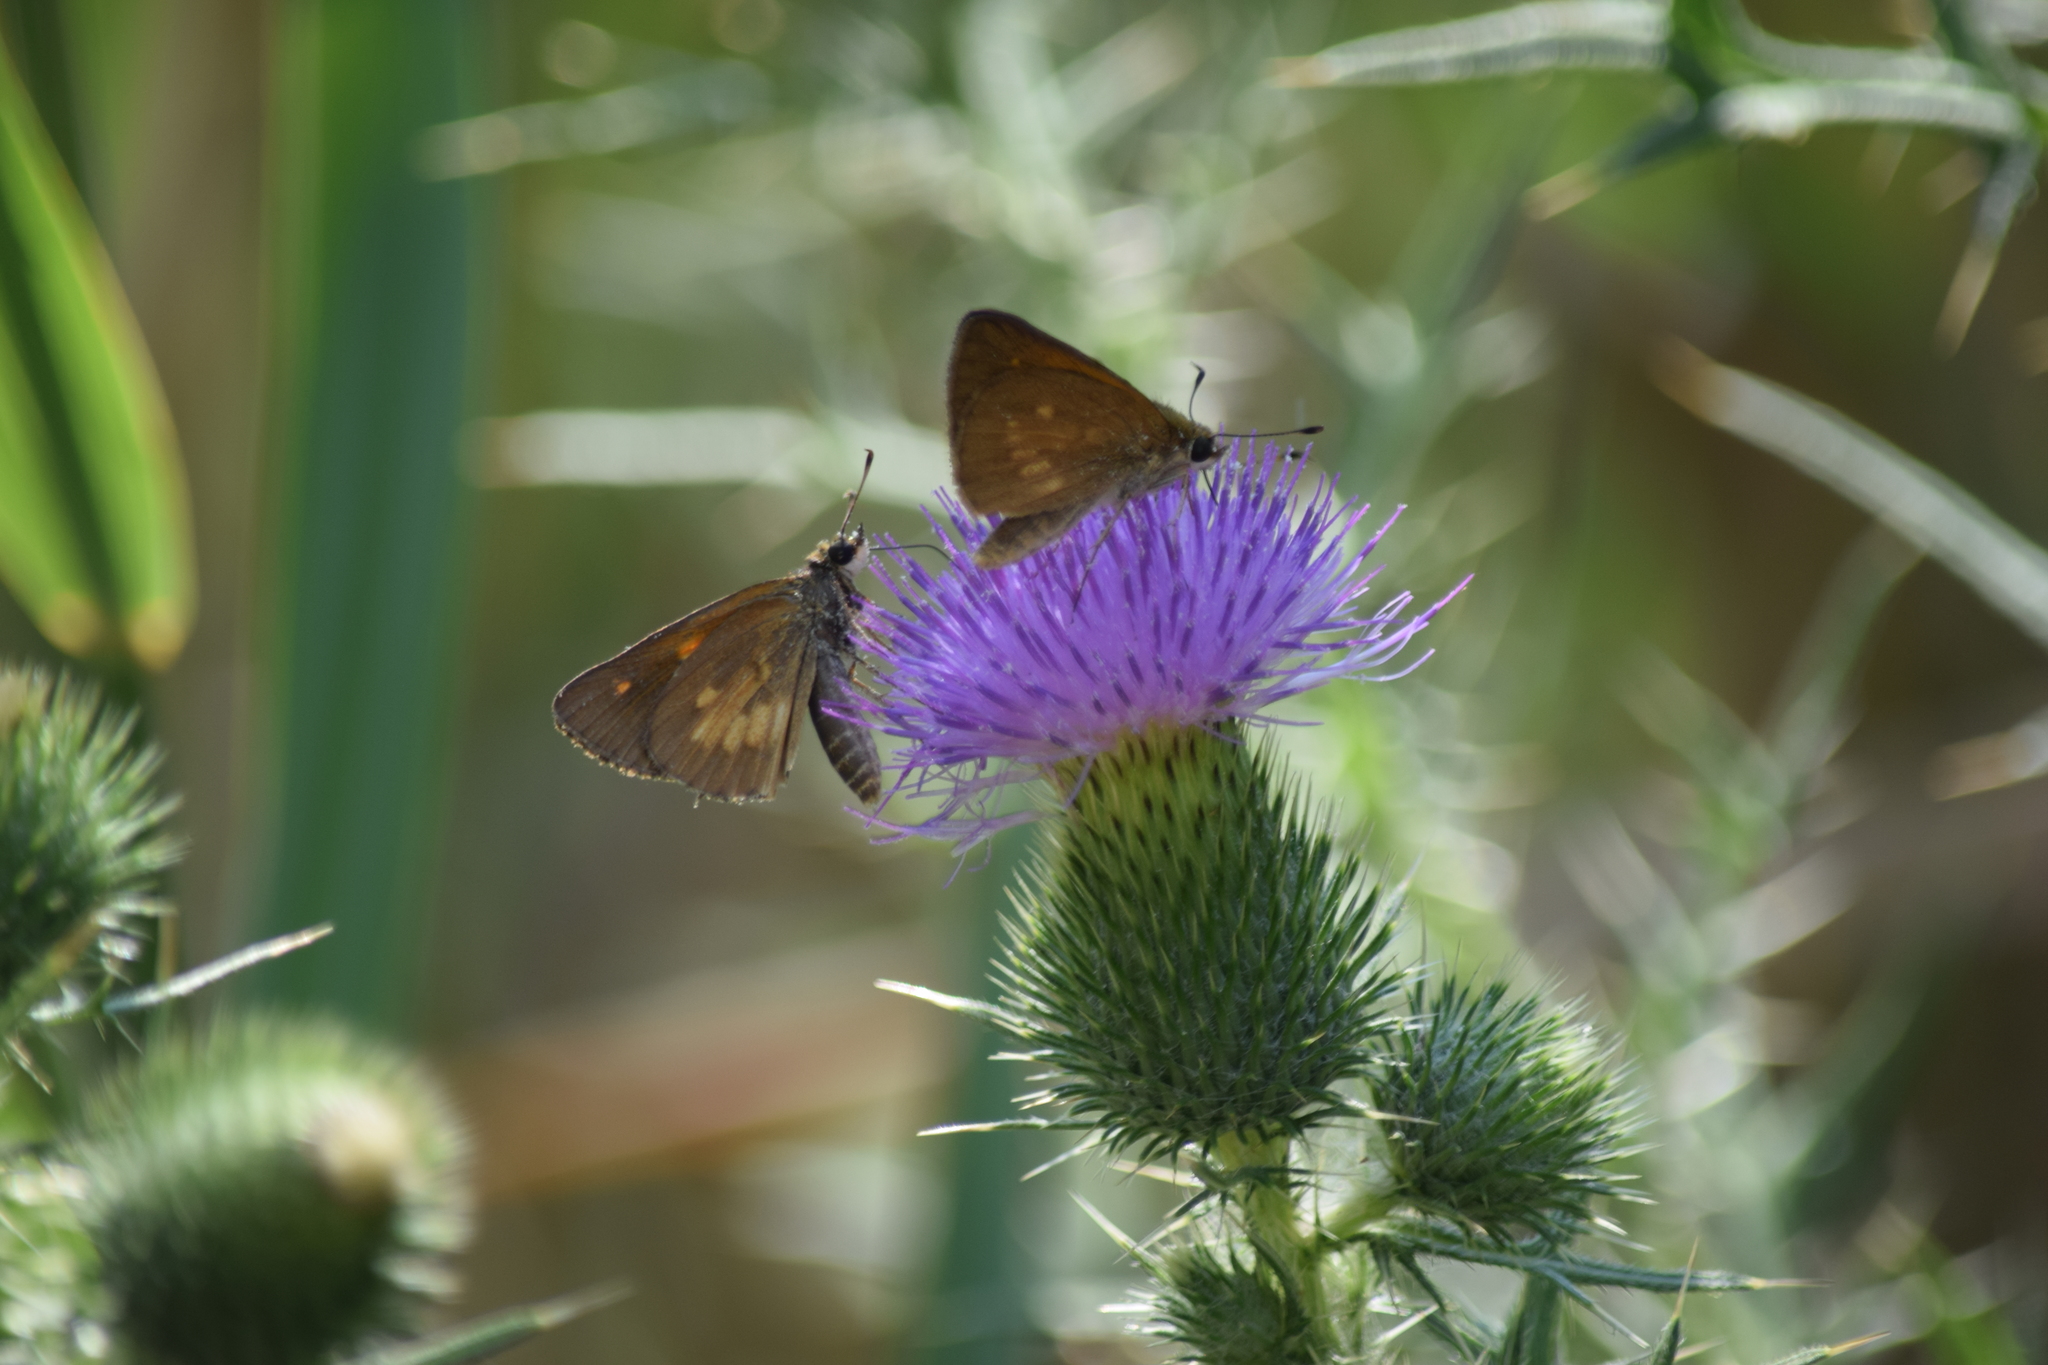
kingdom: Animalia
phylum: Arthropoda
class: Insecta
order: Lepidoptera
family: Hesperiidae
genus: Poanes
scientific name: Poanes viator
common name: Broad-winged skipper
